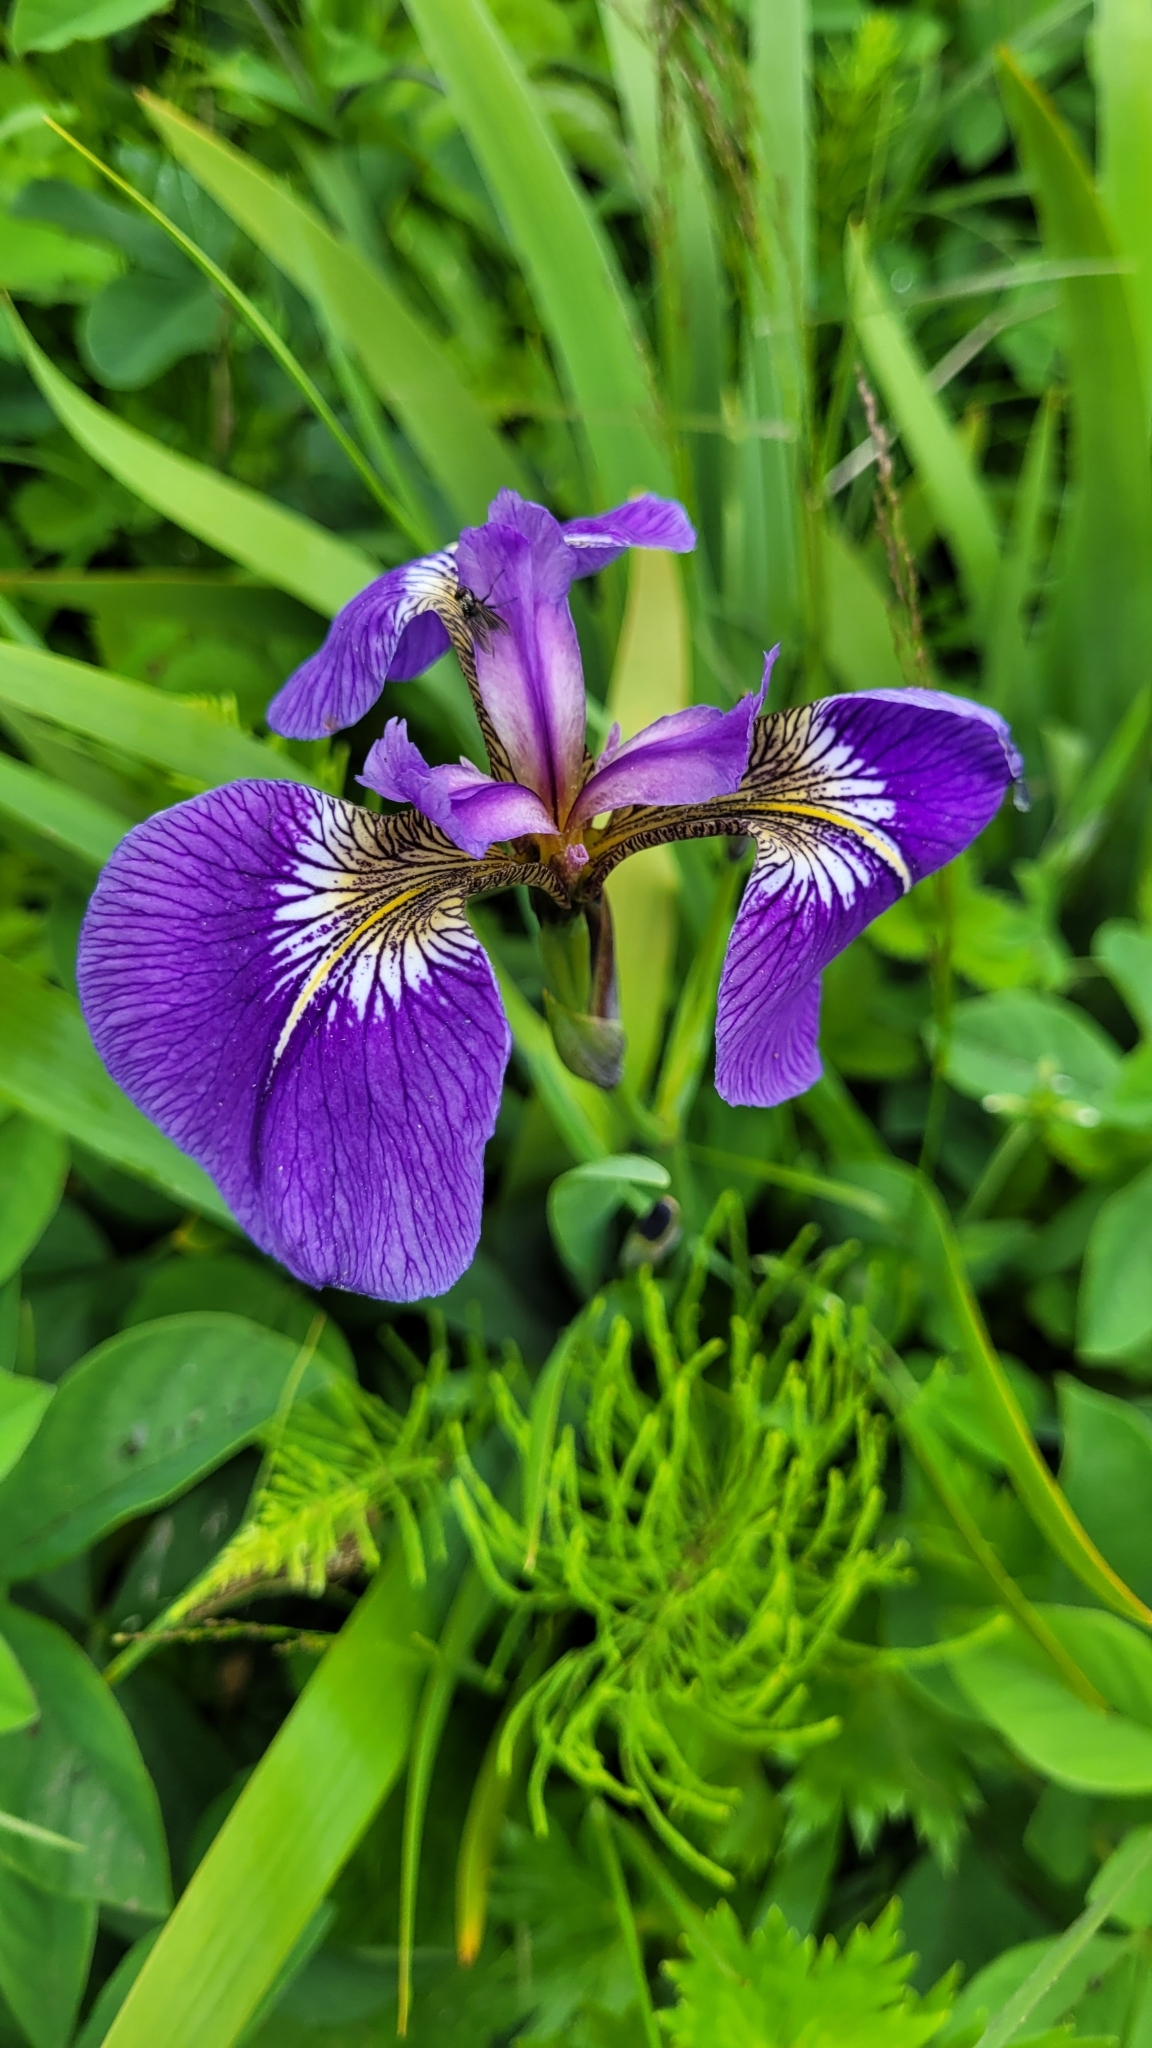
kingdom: Plantae
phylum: Tracheophyta
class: Liliopsida
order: Asparagales
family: Iridaceae
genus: Iris
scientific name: Iris setosa
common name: Arctic blue flag
